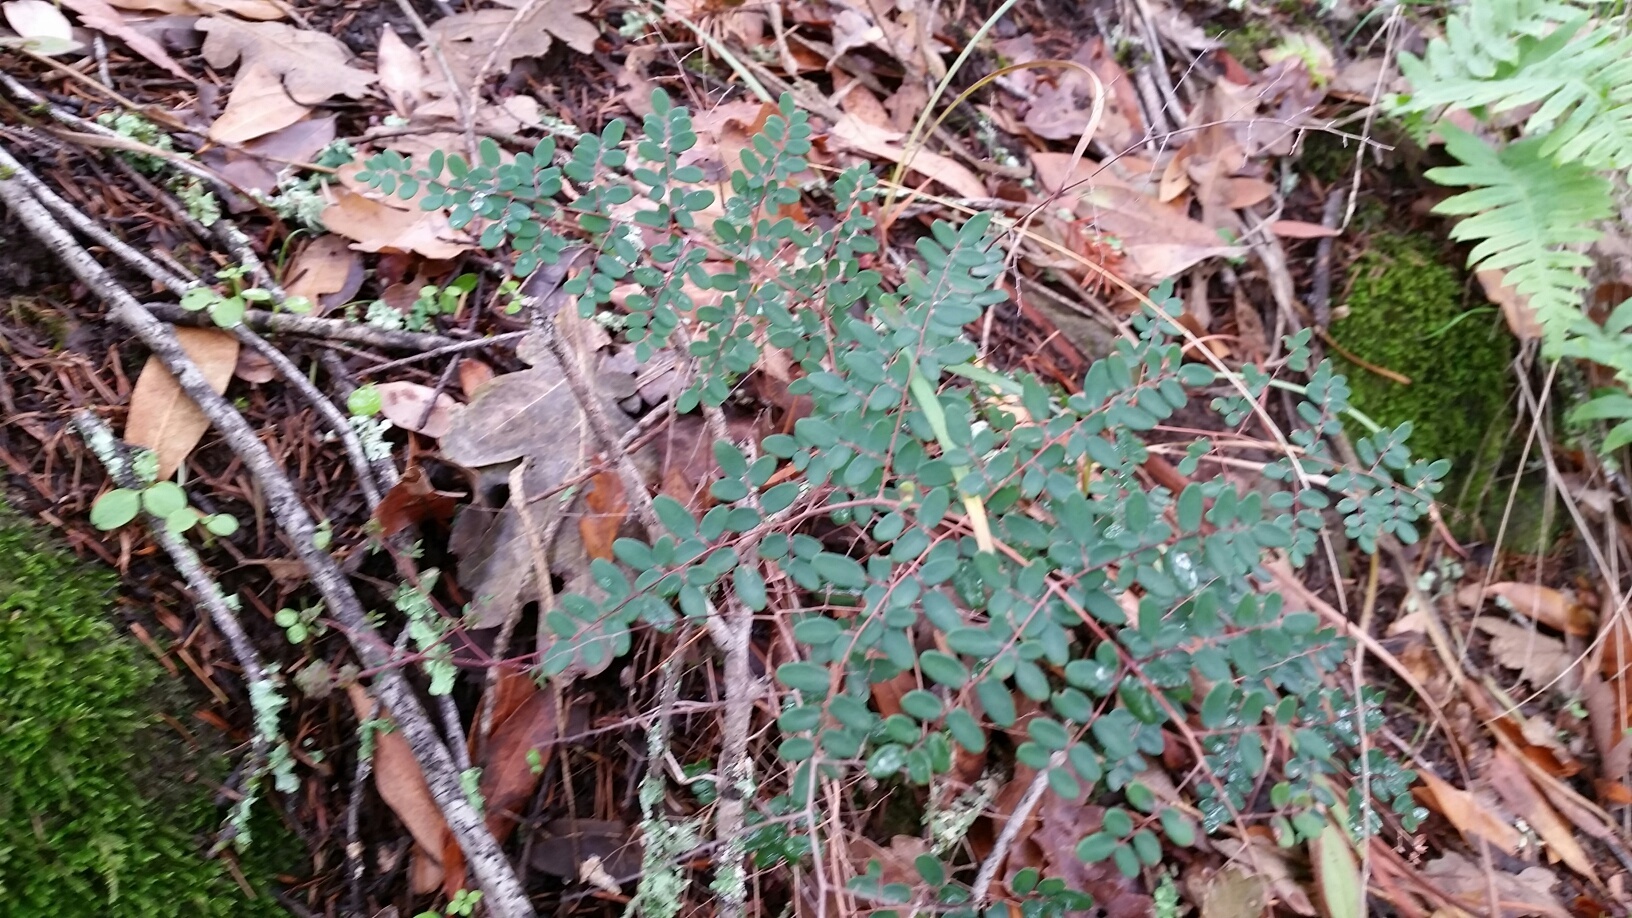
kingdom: Plantae
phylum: Tracheophyta
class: Polypodiopsida
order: Polypodiales
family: Pteridaceae
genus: Pellaea
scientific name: Pellaea andromedifolia
